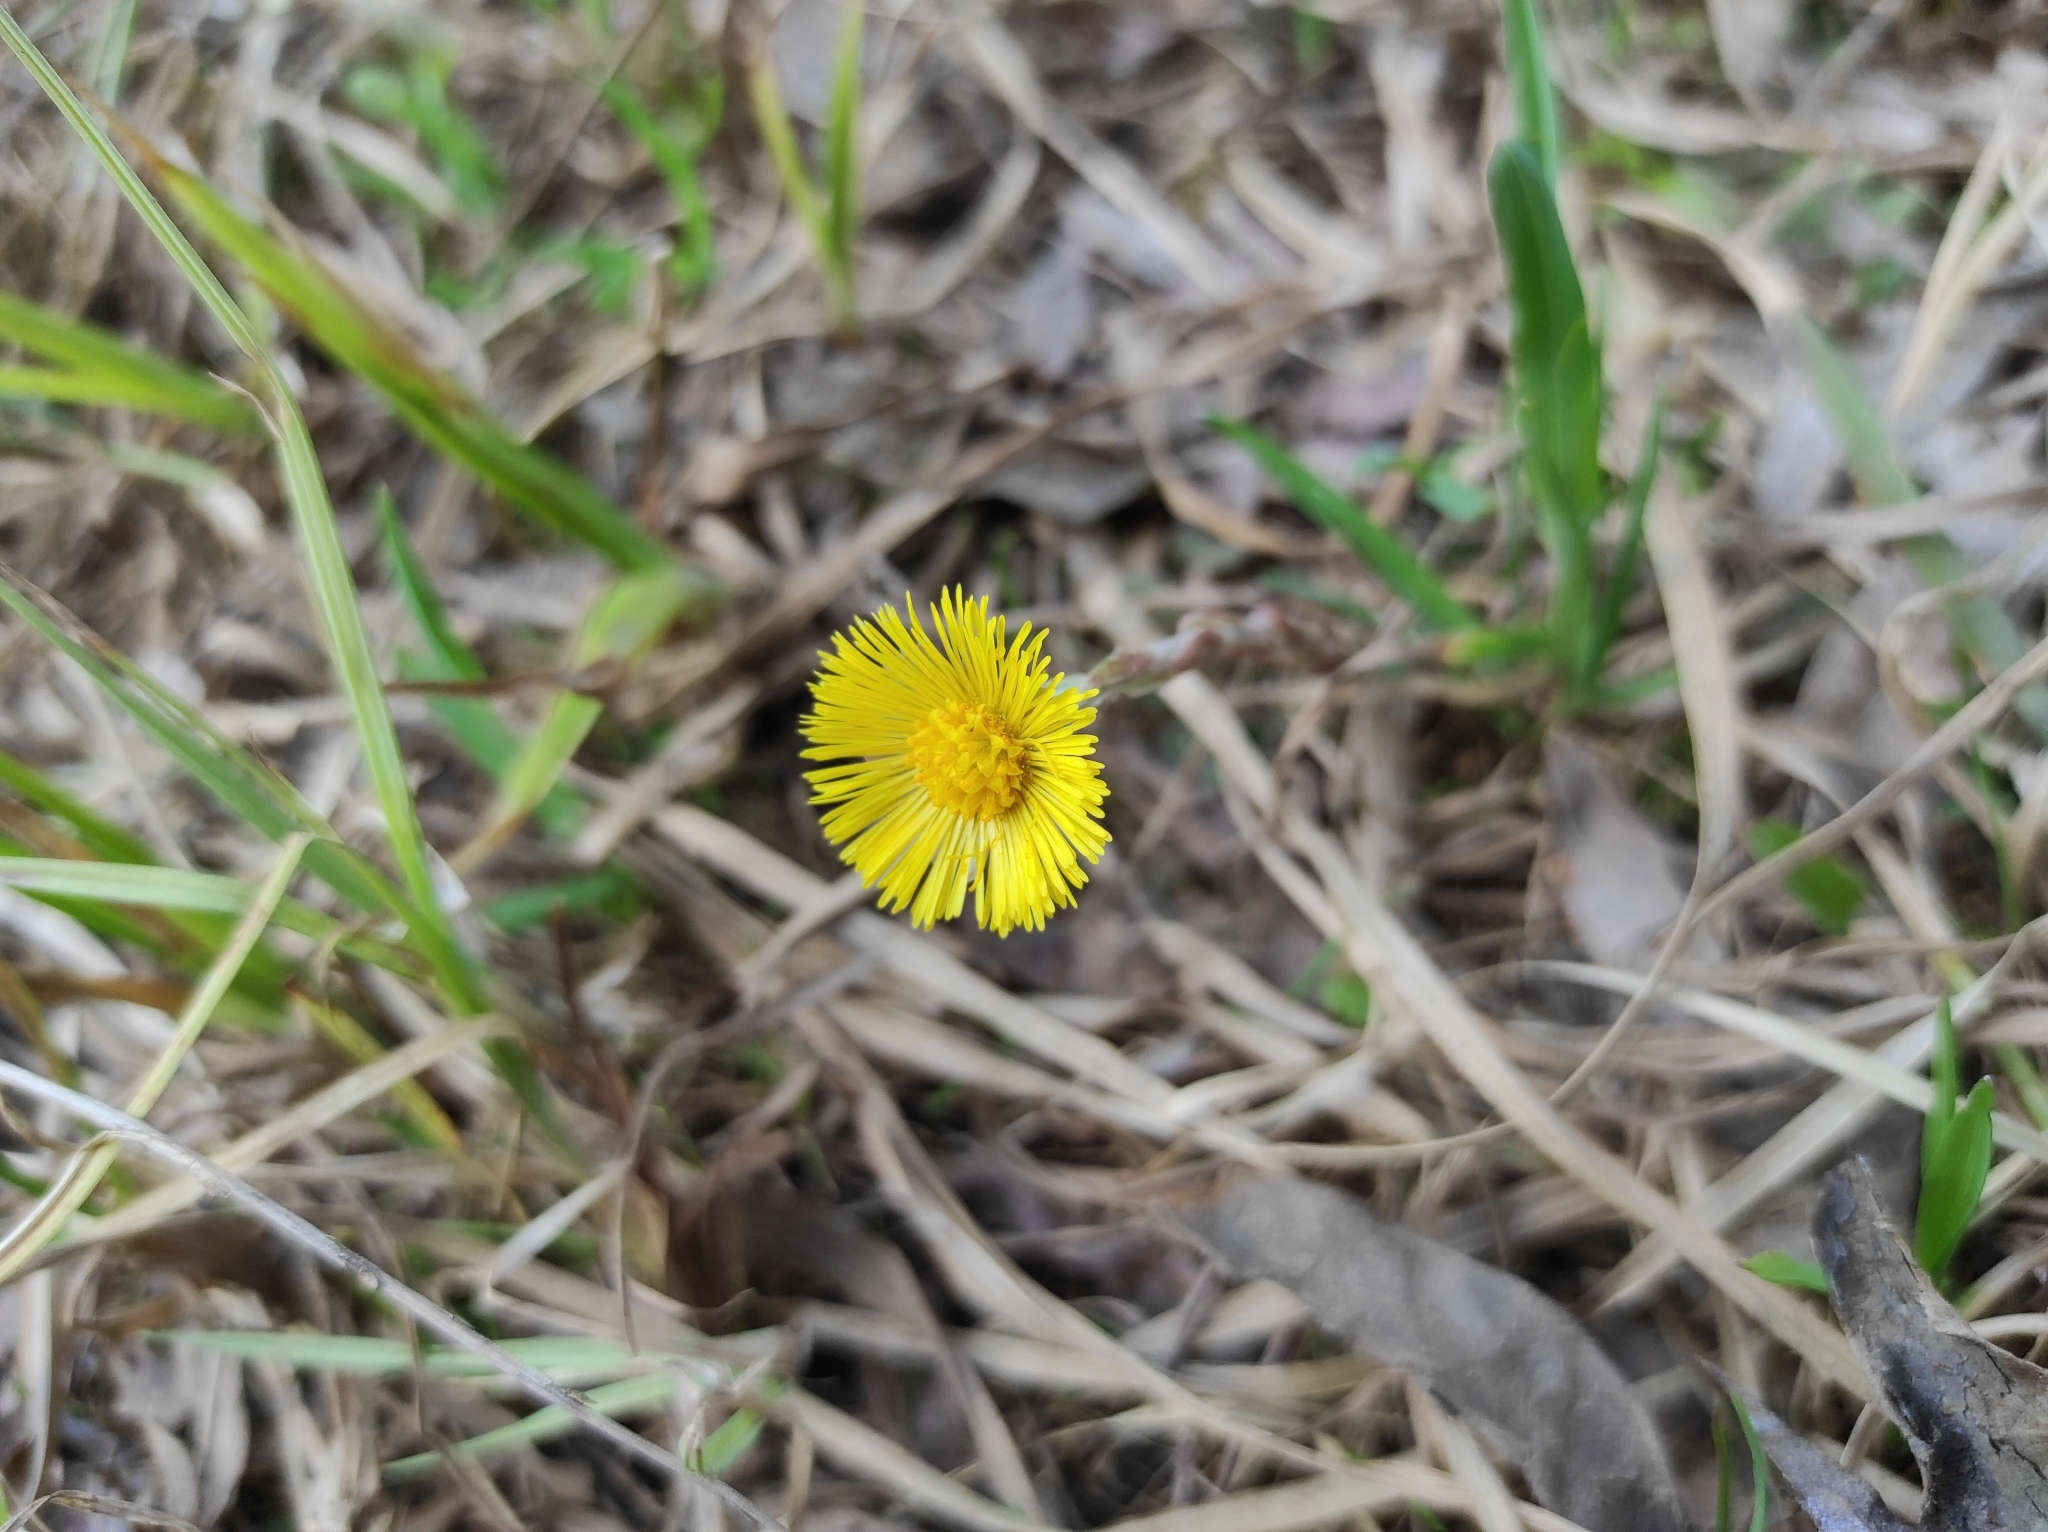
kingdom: Plantae
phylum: Tracheophyta
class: Magnoliopsida
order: Asterales
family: Asteraceae
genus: Tussilago
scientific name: Tussilago farfara
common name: Coltsfoot
